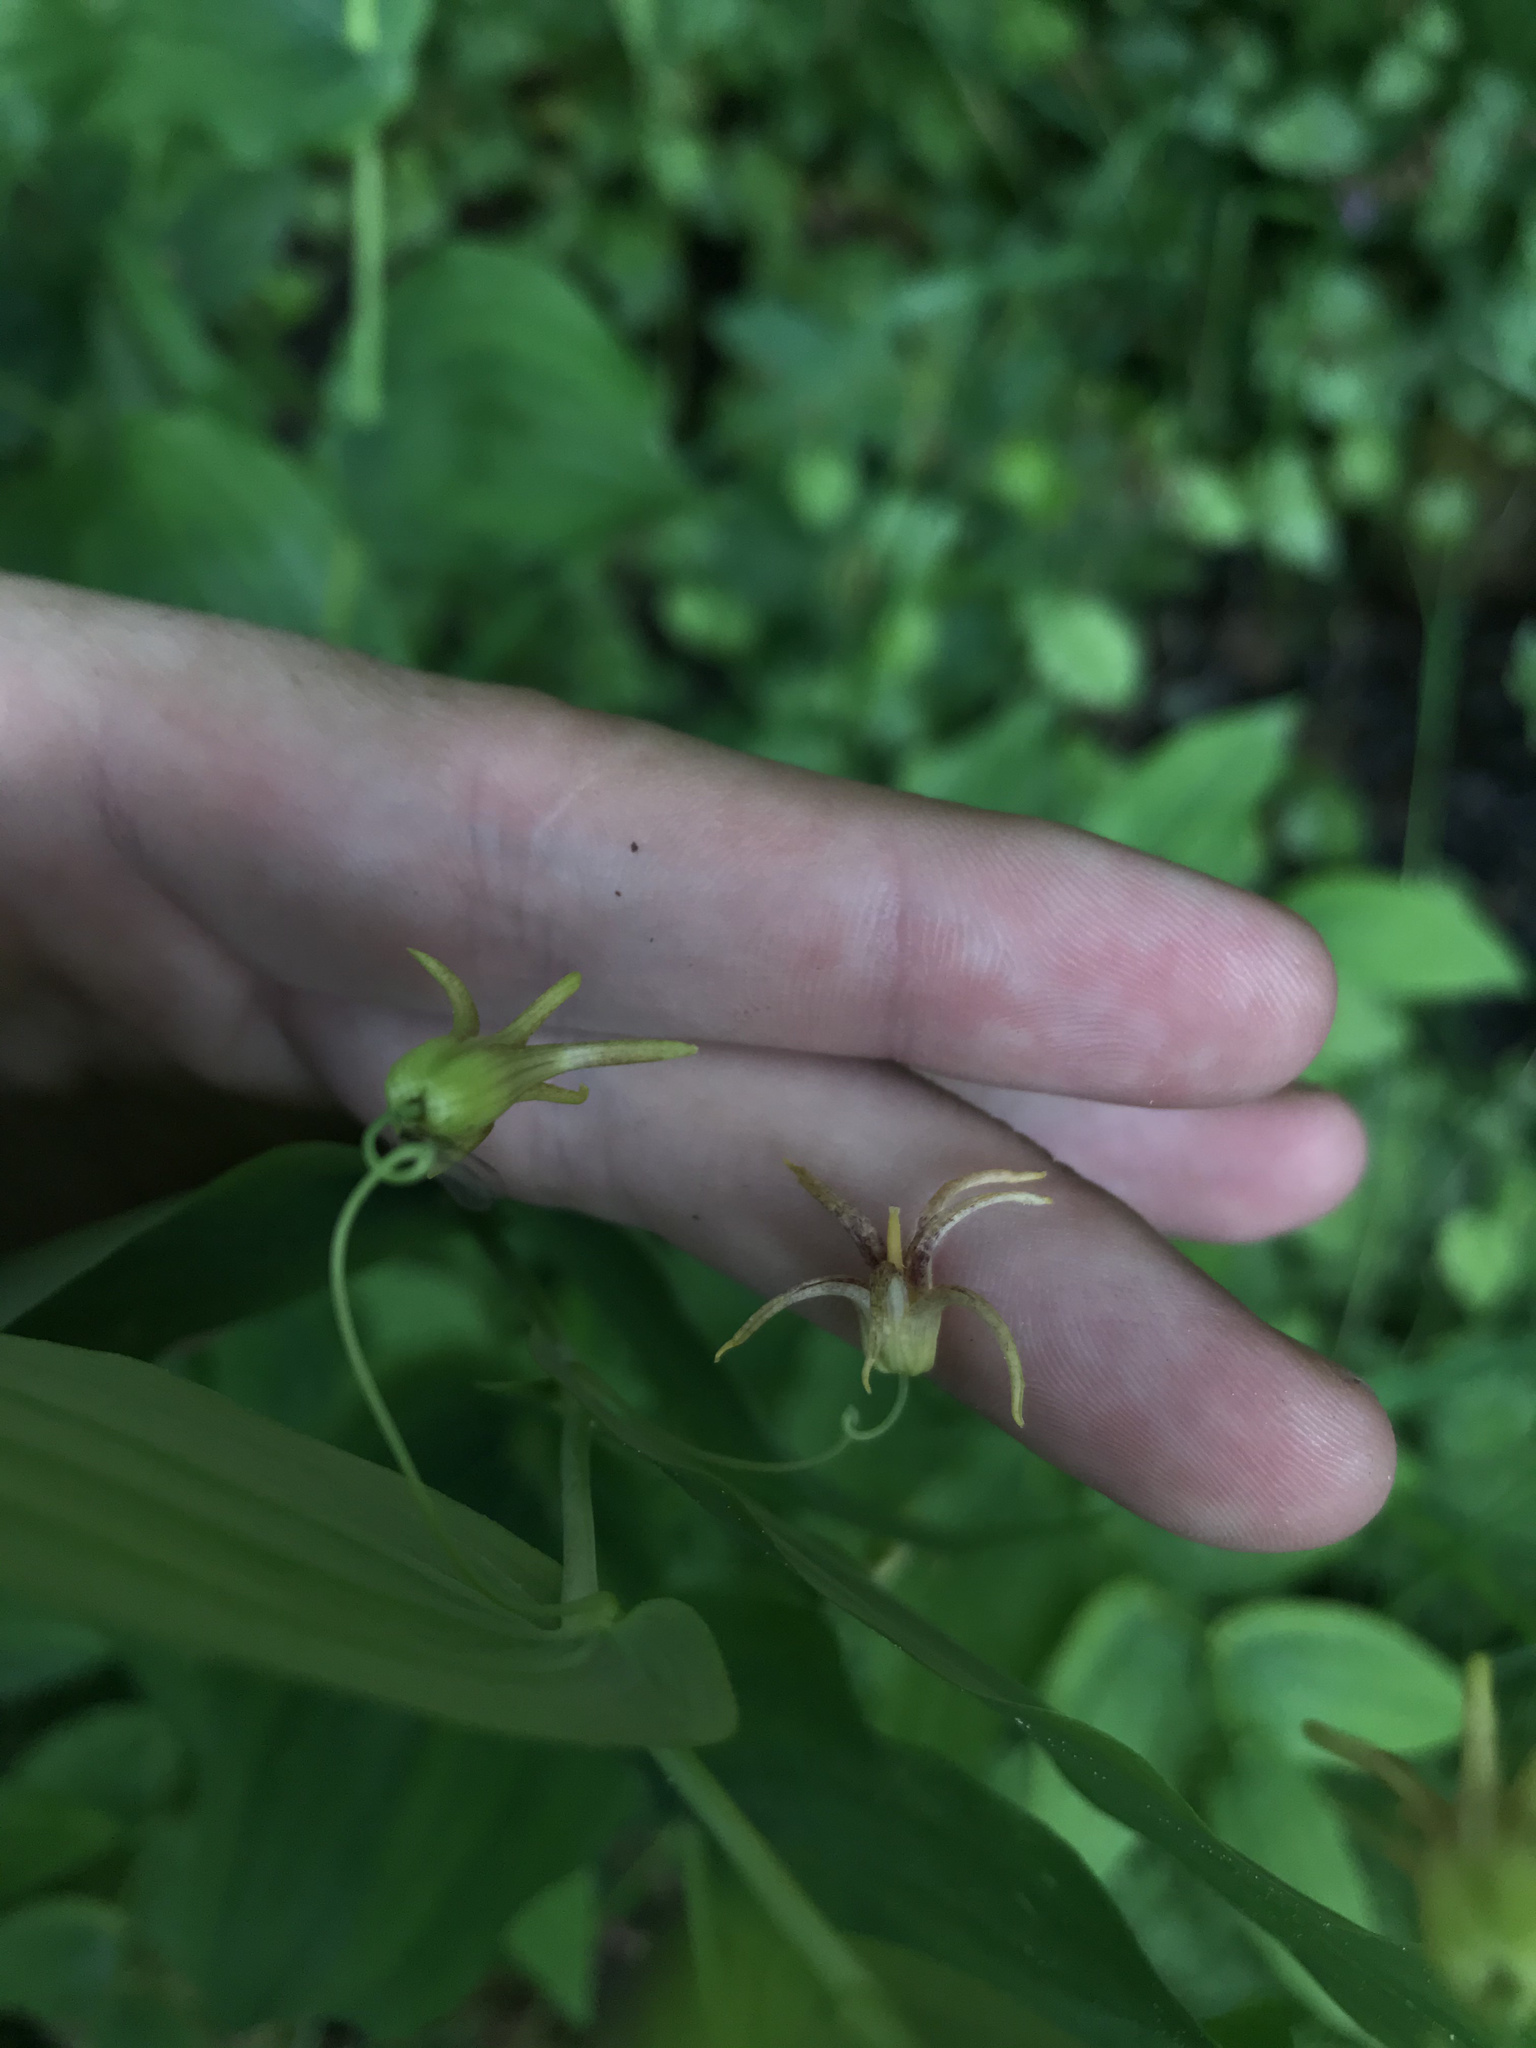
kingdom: Plantae
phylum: Tracheophyta
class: Liliopsida
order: Liliales
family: Liliaceae
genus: Streptopus
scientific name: Streptopus amplexifolius
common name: Clasp twisted stalk
